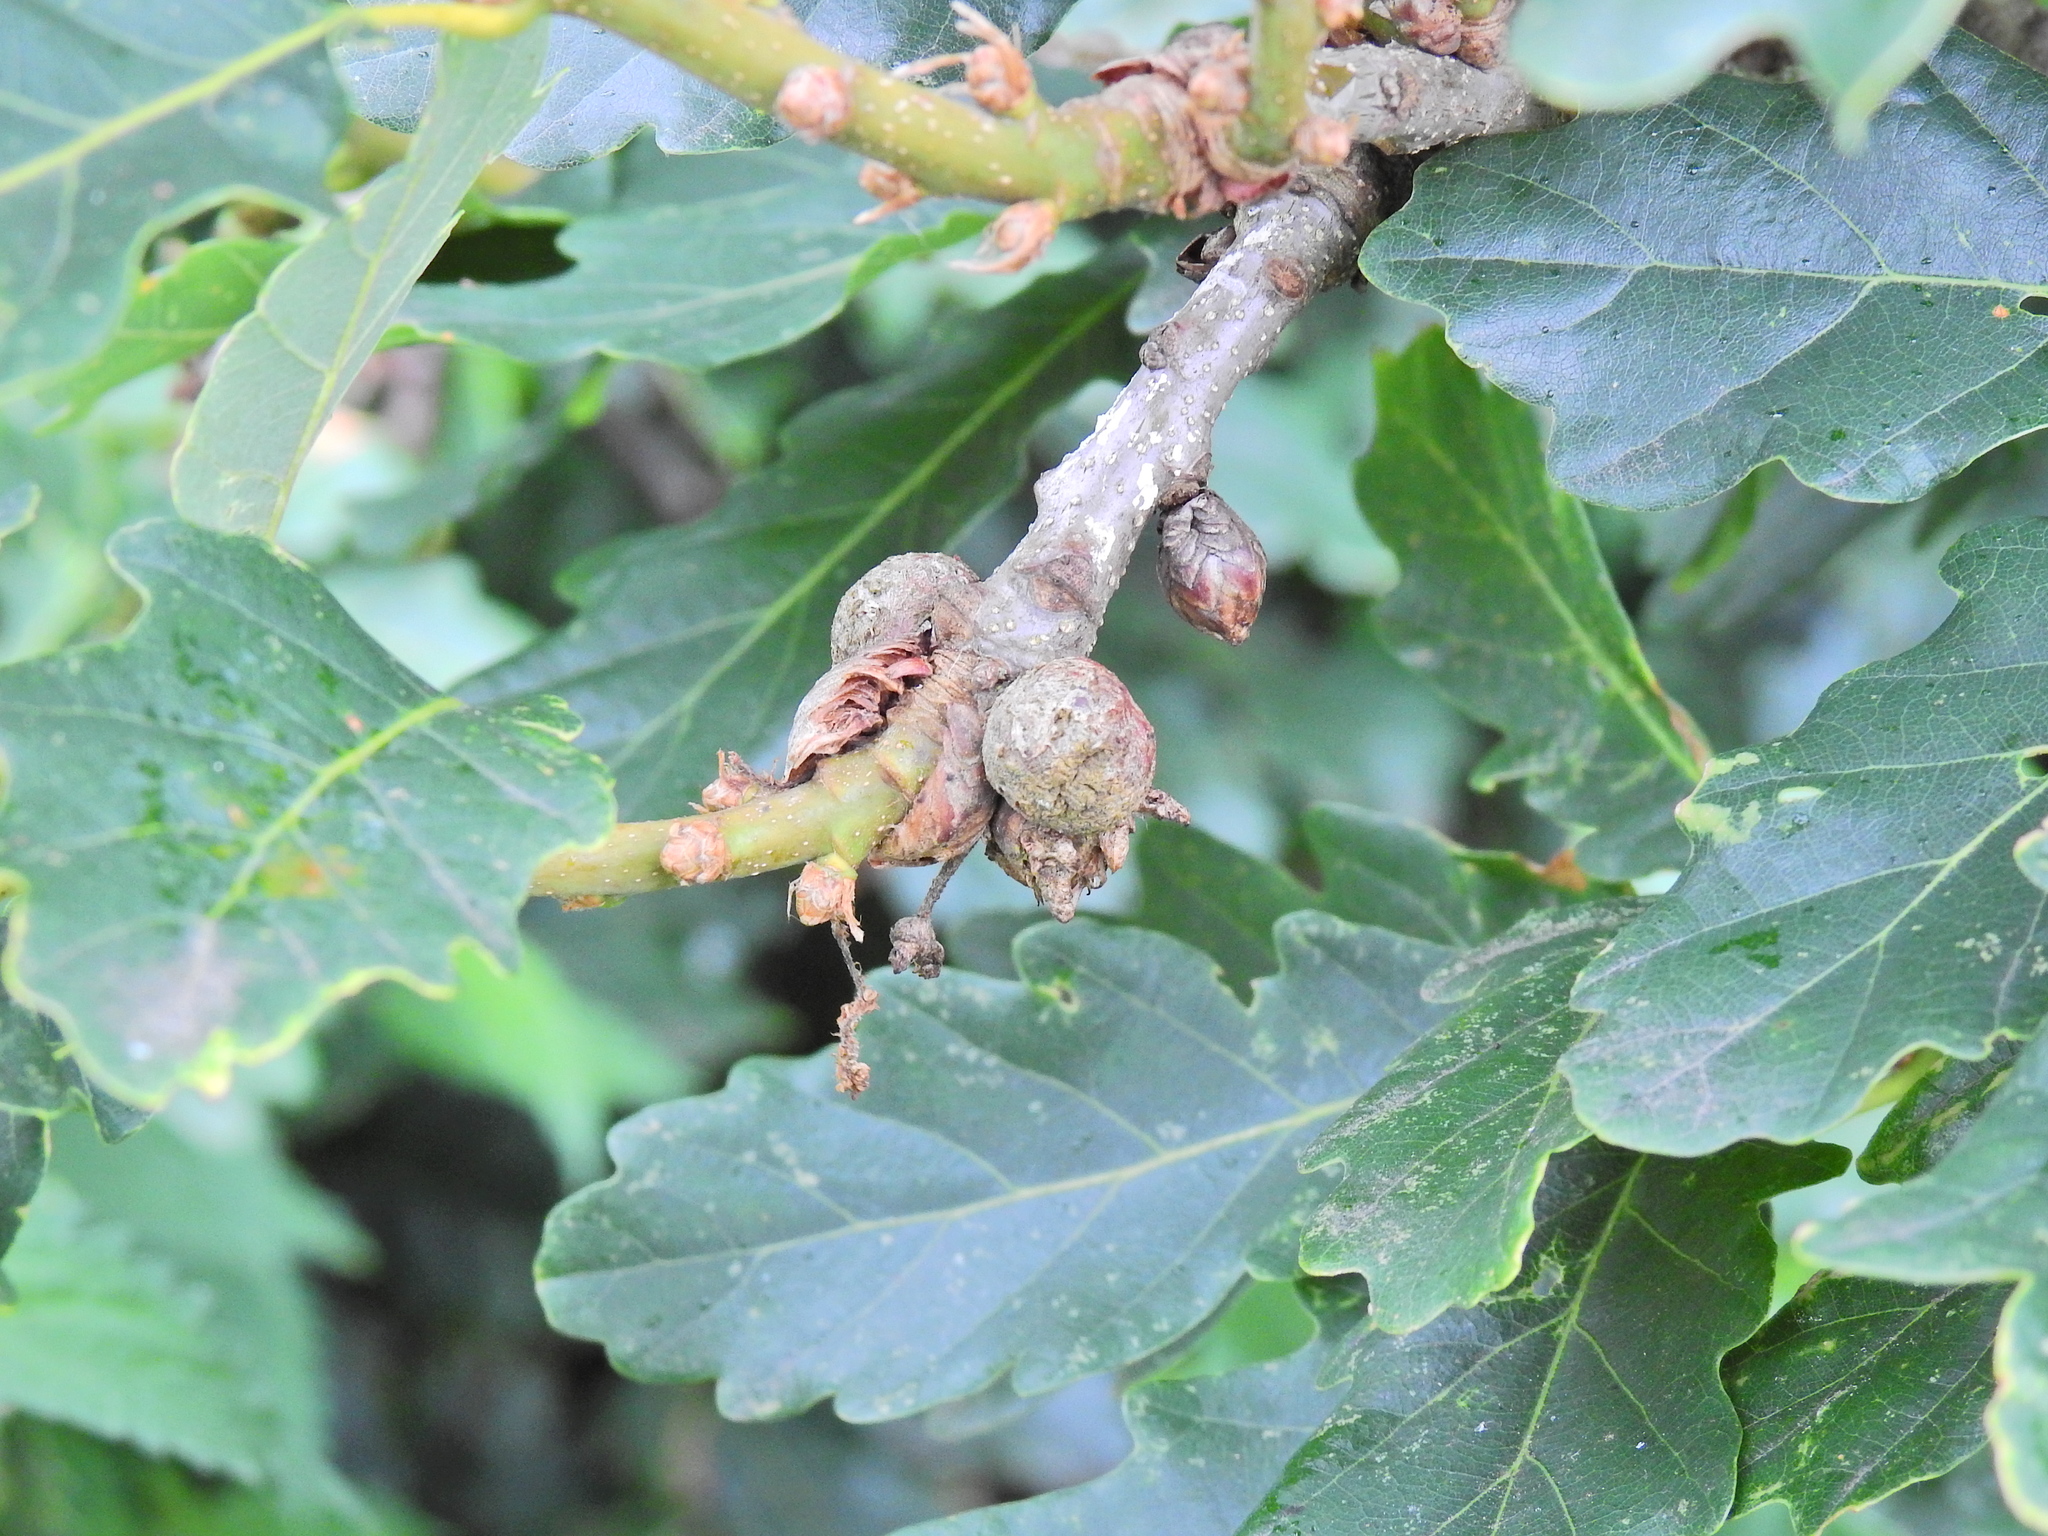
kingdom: Animalia
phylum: Arthropoda
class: Insecta
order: Hymenoptera
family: Cynipidae
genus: Andricus
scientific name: Andricus lignicolus
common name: Cola-nut gall
